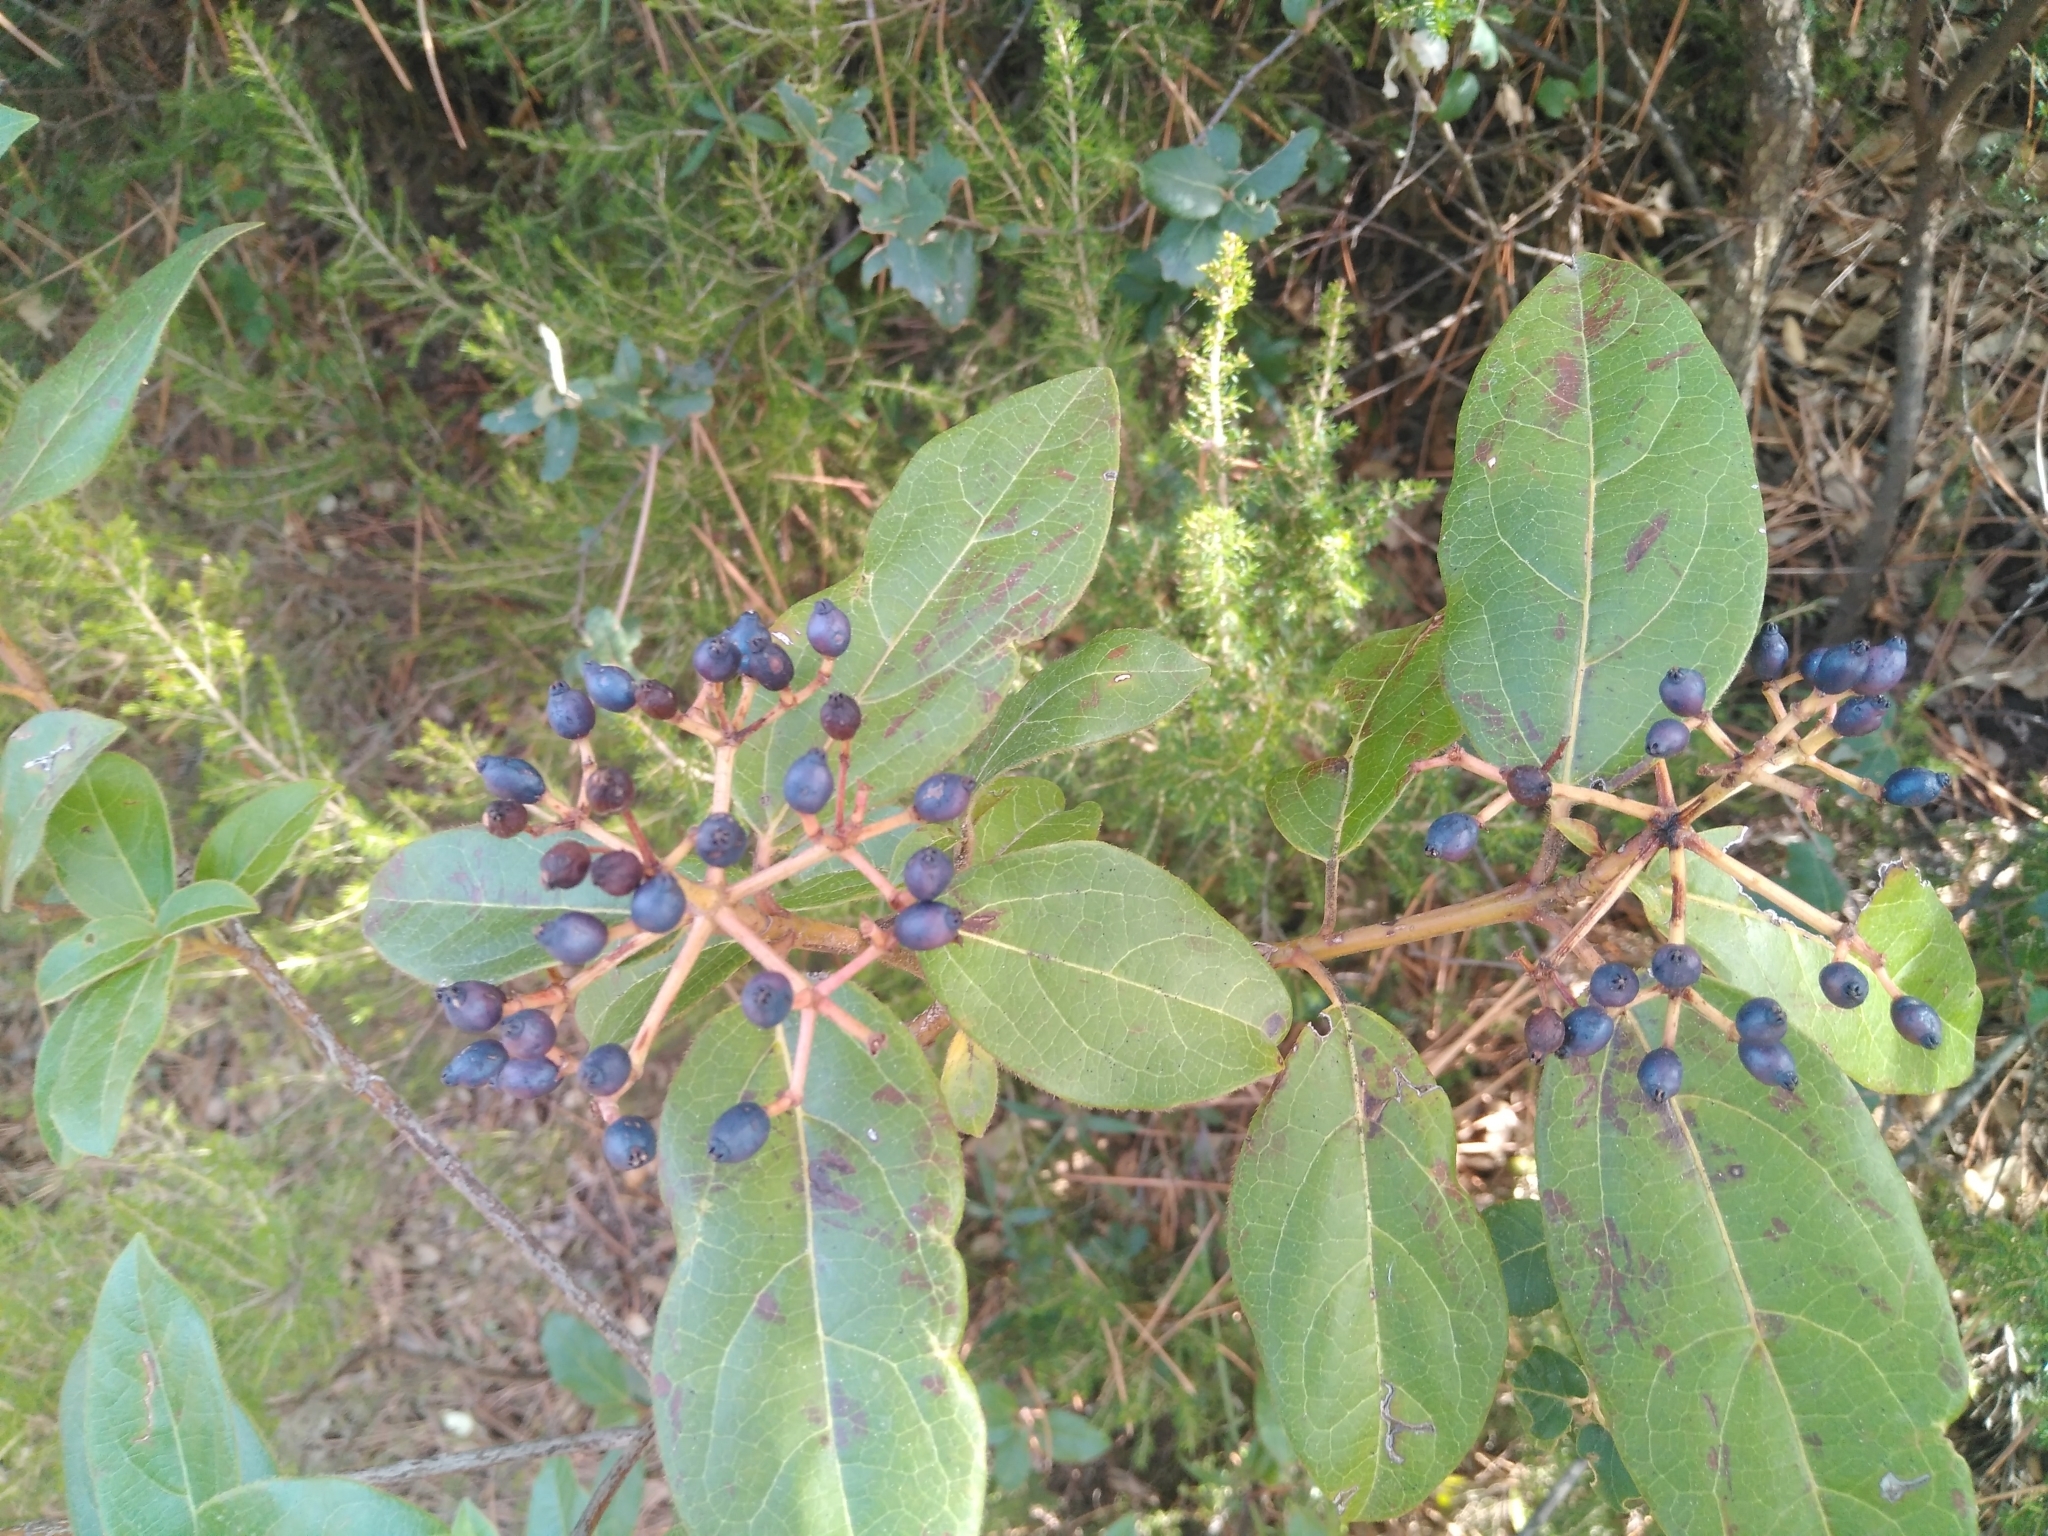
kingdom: Plantae
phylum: Tracheophyta
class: Magnoliopsida
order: Dipsacales
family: Viburnaceae
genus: Viburnum
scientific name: Viburnum tinus
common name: Laurustinus
